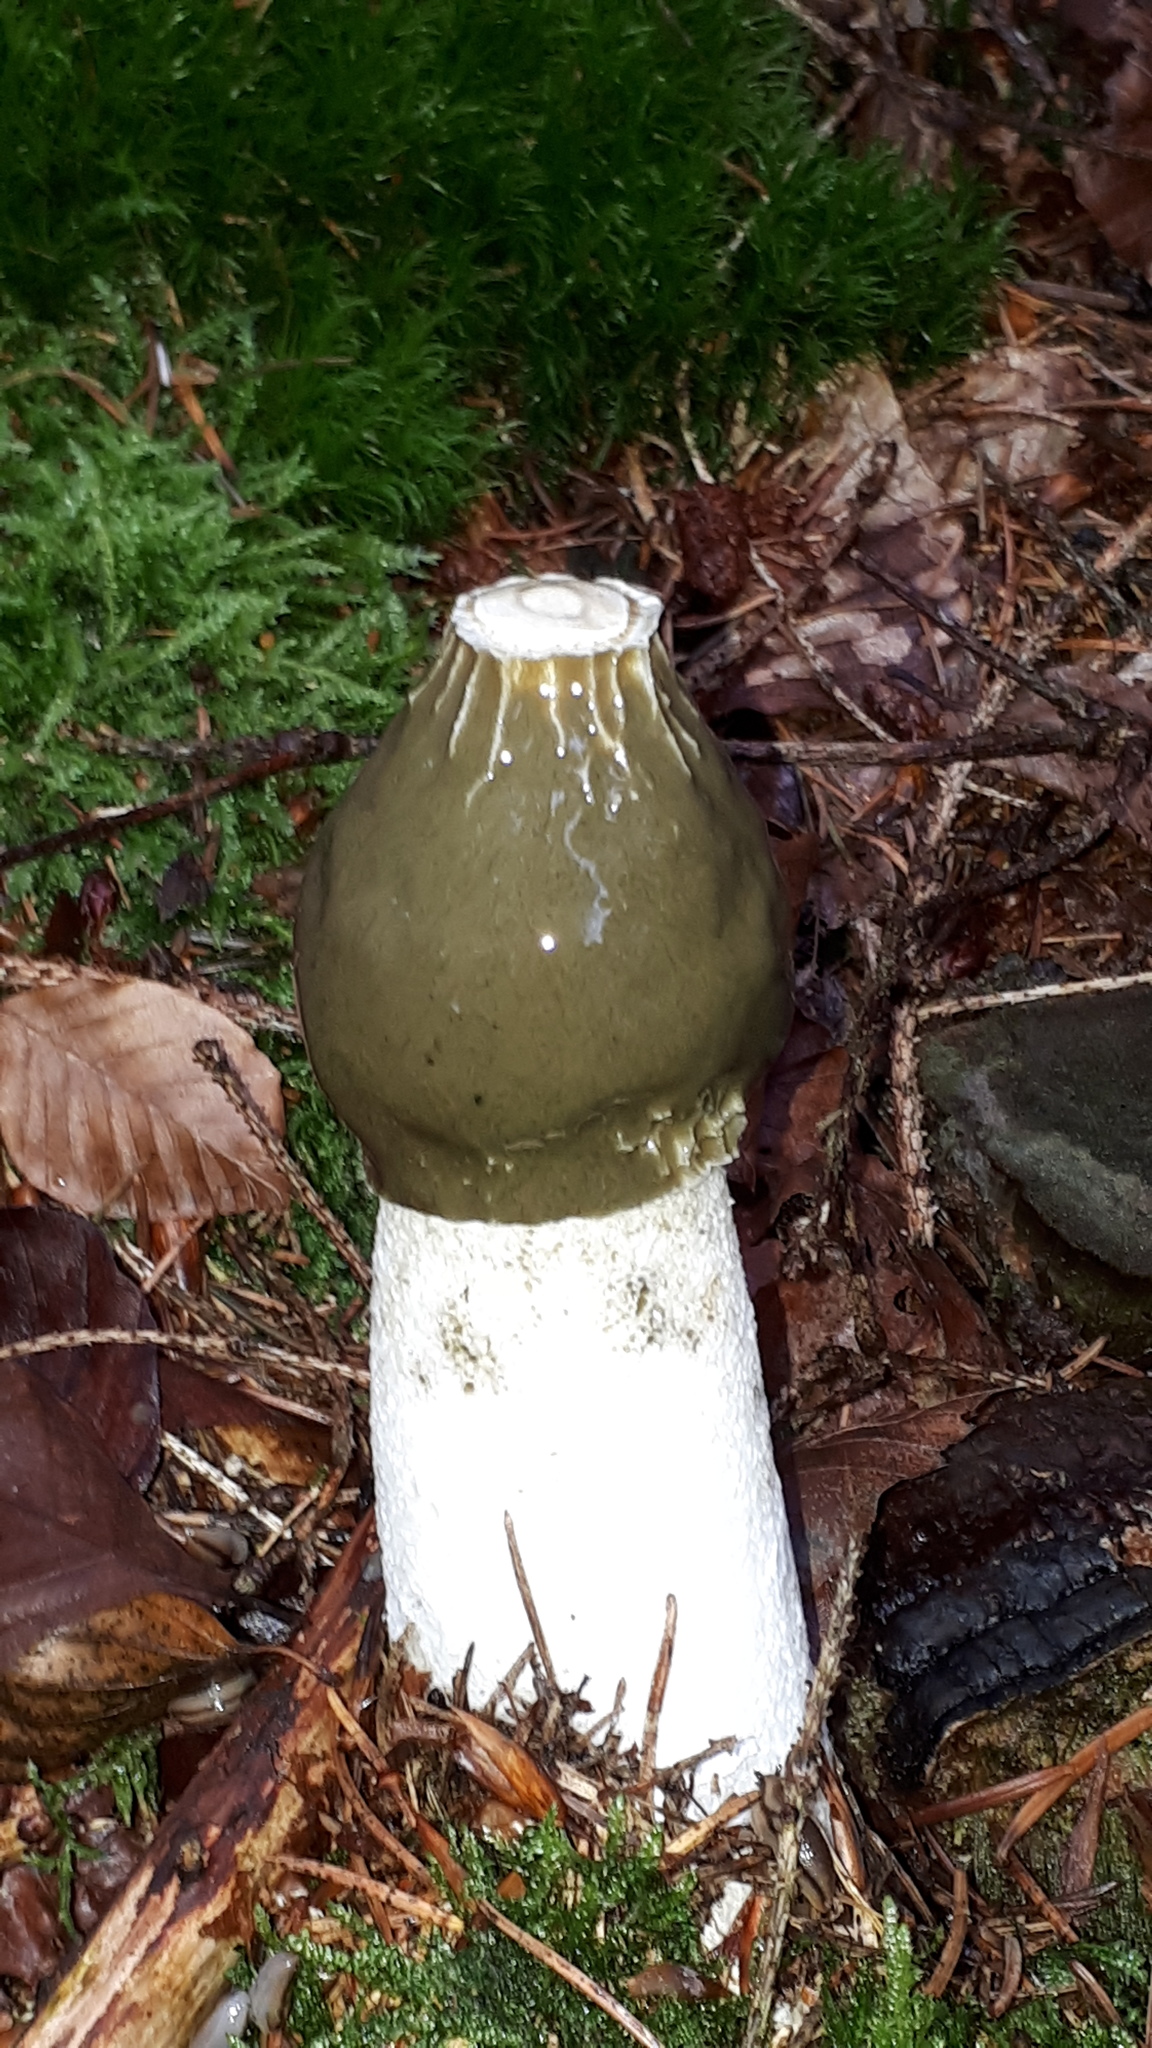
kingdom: Fungi
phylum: Basidiomycota
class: Agaricomycetes
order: Phallales
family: Phallaceae
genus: Phallus
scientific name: Phallus impudicus
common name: Common stinkhorn
